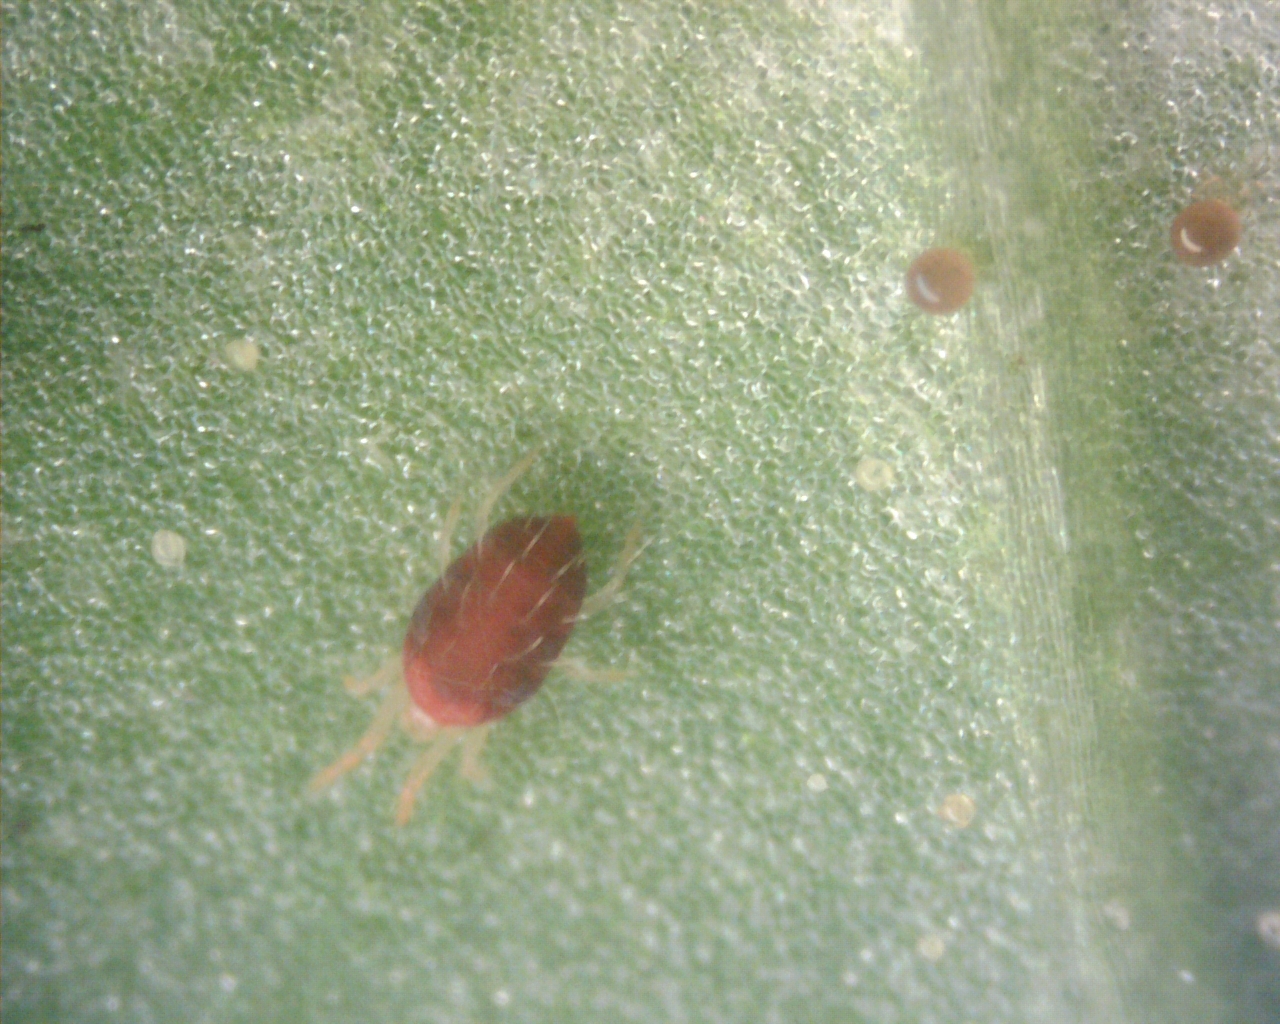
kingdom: Animalia
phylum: Arthropoda
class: Arachnida
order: Trombidiformes
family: Tetranychidae
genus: Tetranychus
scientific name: Tetranychus urticae
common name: Carmine spider mite
